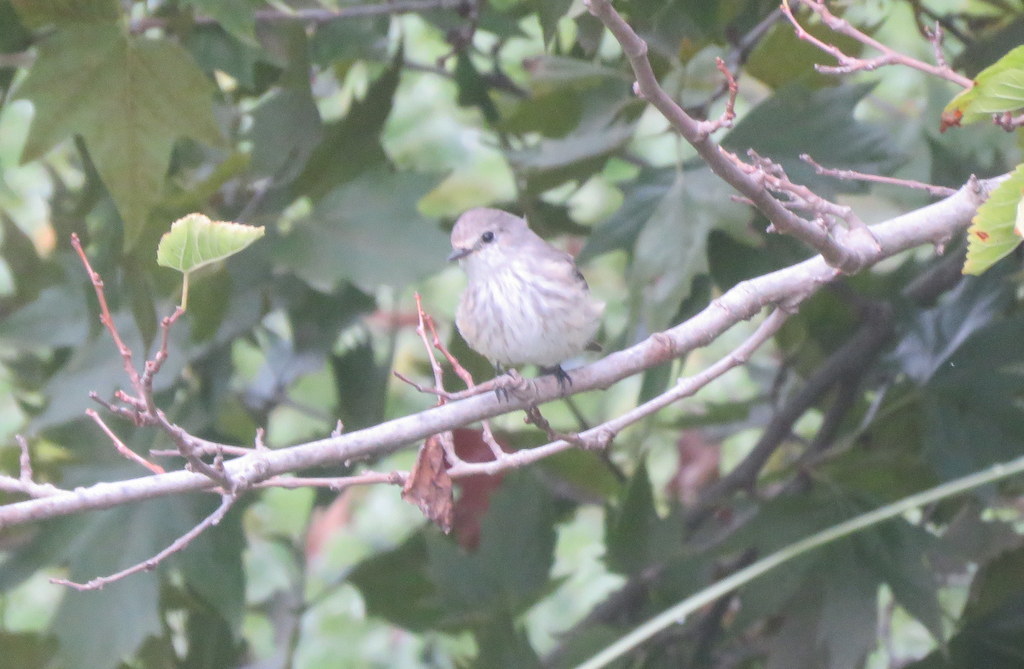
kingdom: Animalia
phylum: Chordata
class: Aves
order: Passeriformes
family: Tyrannidae
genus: Pyrocephalus
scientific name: Pyrocephalus rubinus
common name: Vermilion flycatcher
